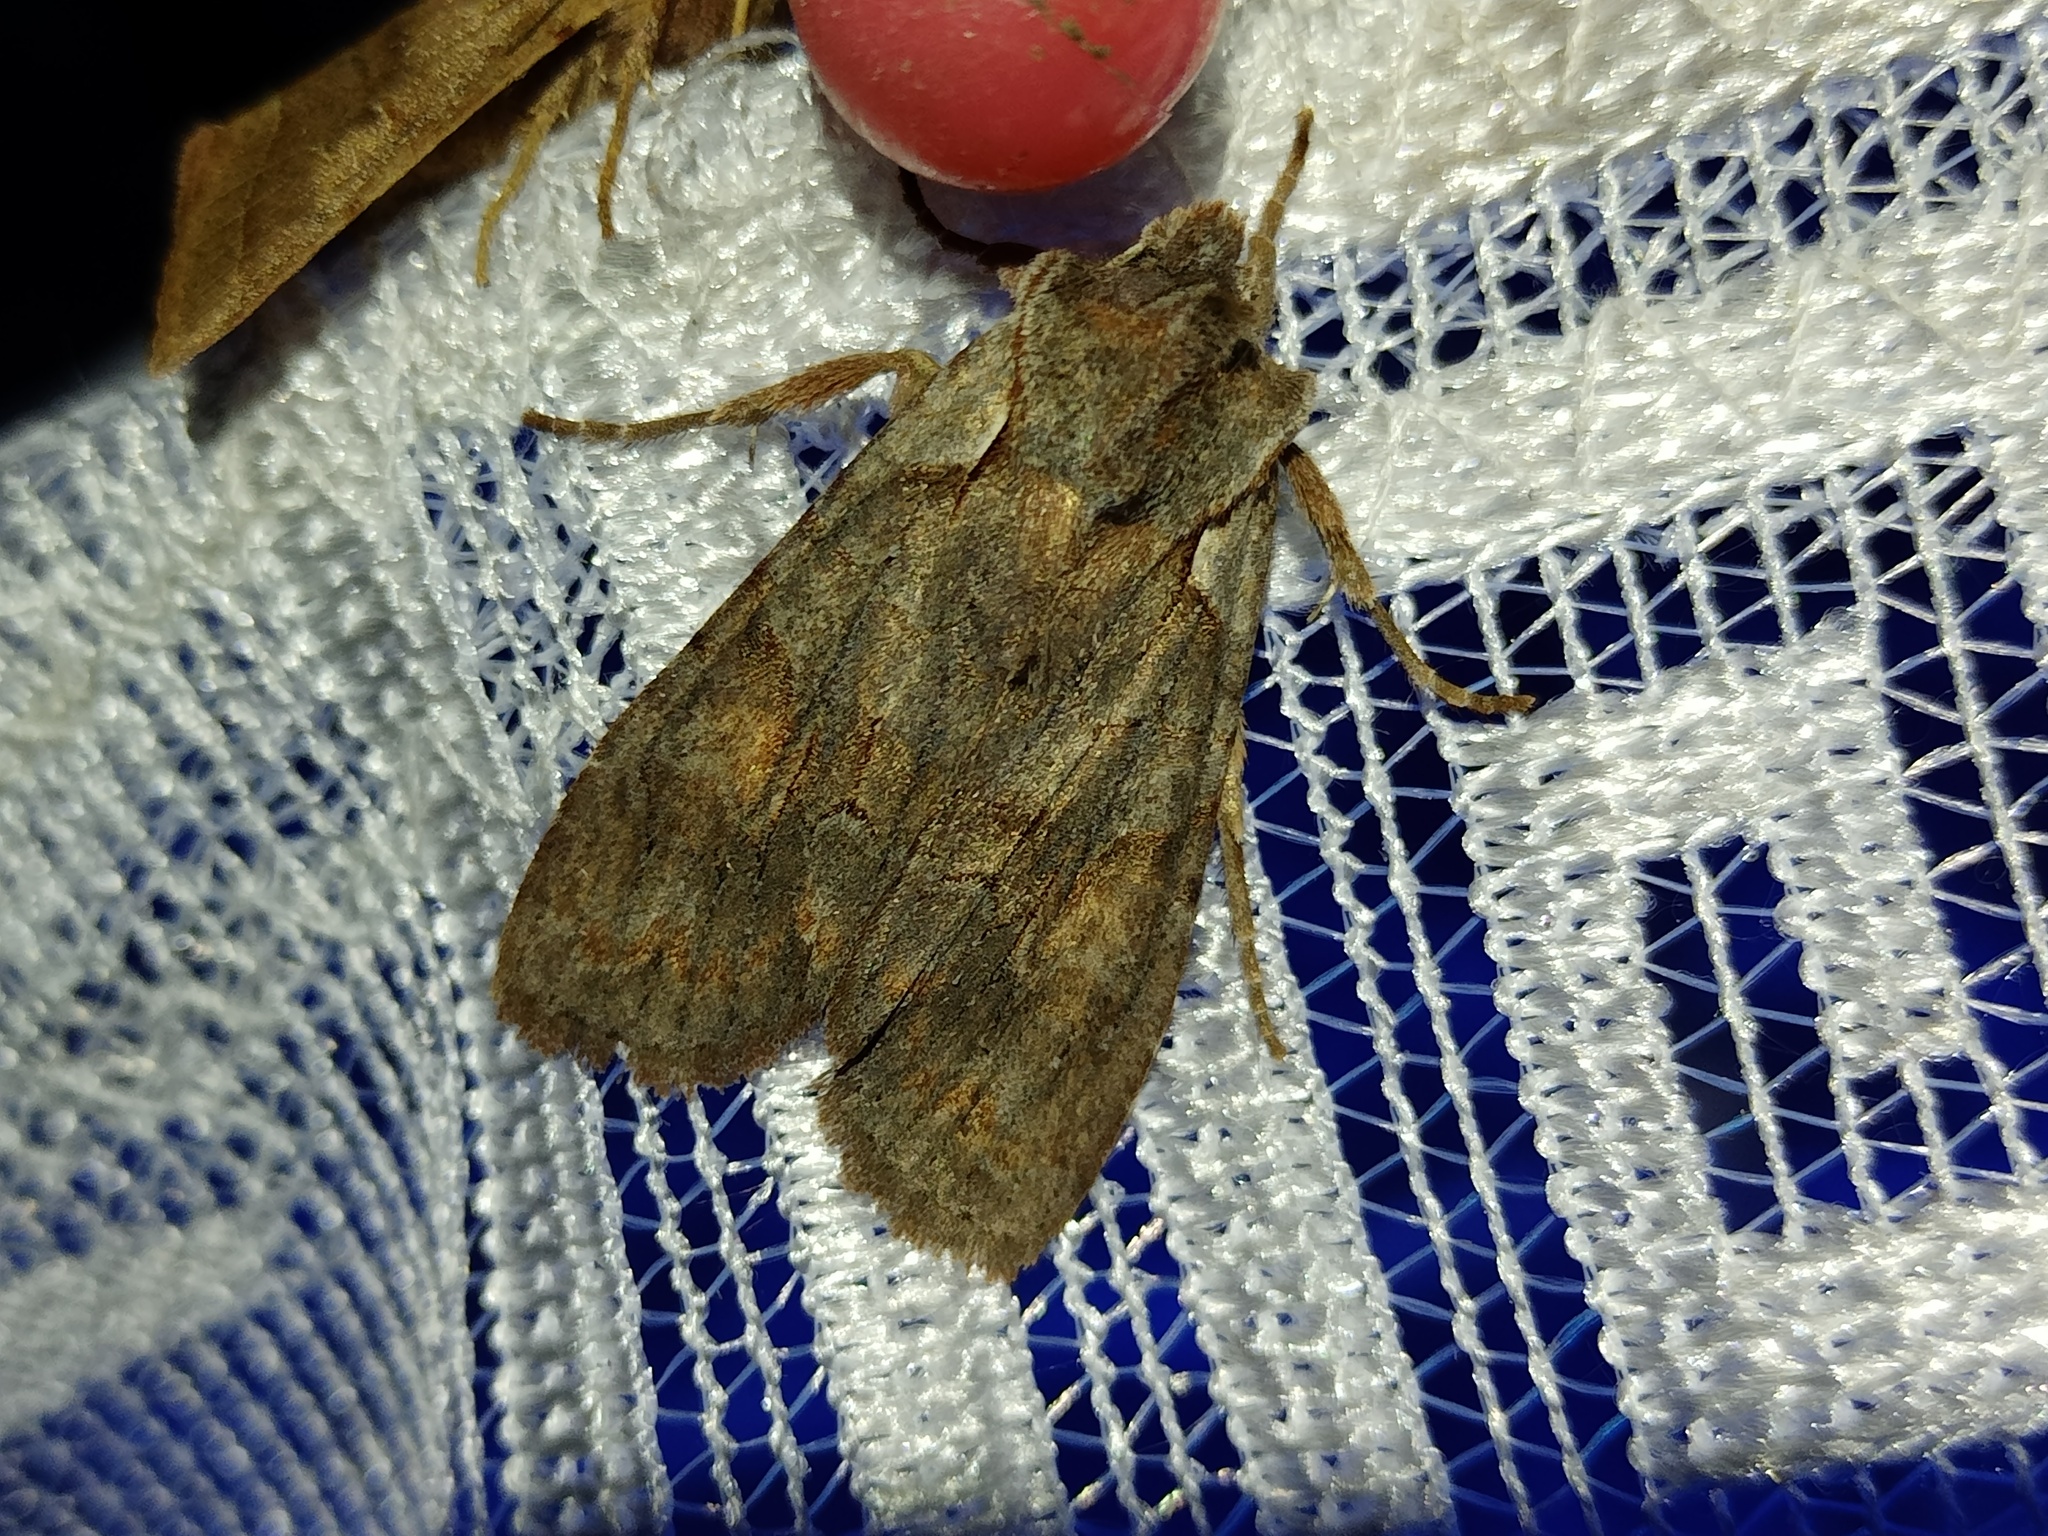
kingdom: Animalia
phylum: Arthropoda
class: Insecta
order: Lepidoptera
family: Noctuidae
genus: Lithophane
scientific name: Lithophane furcifera
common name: Conformist
